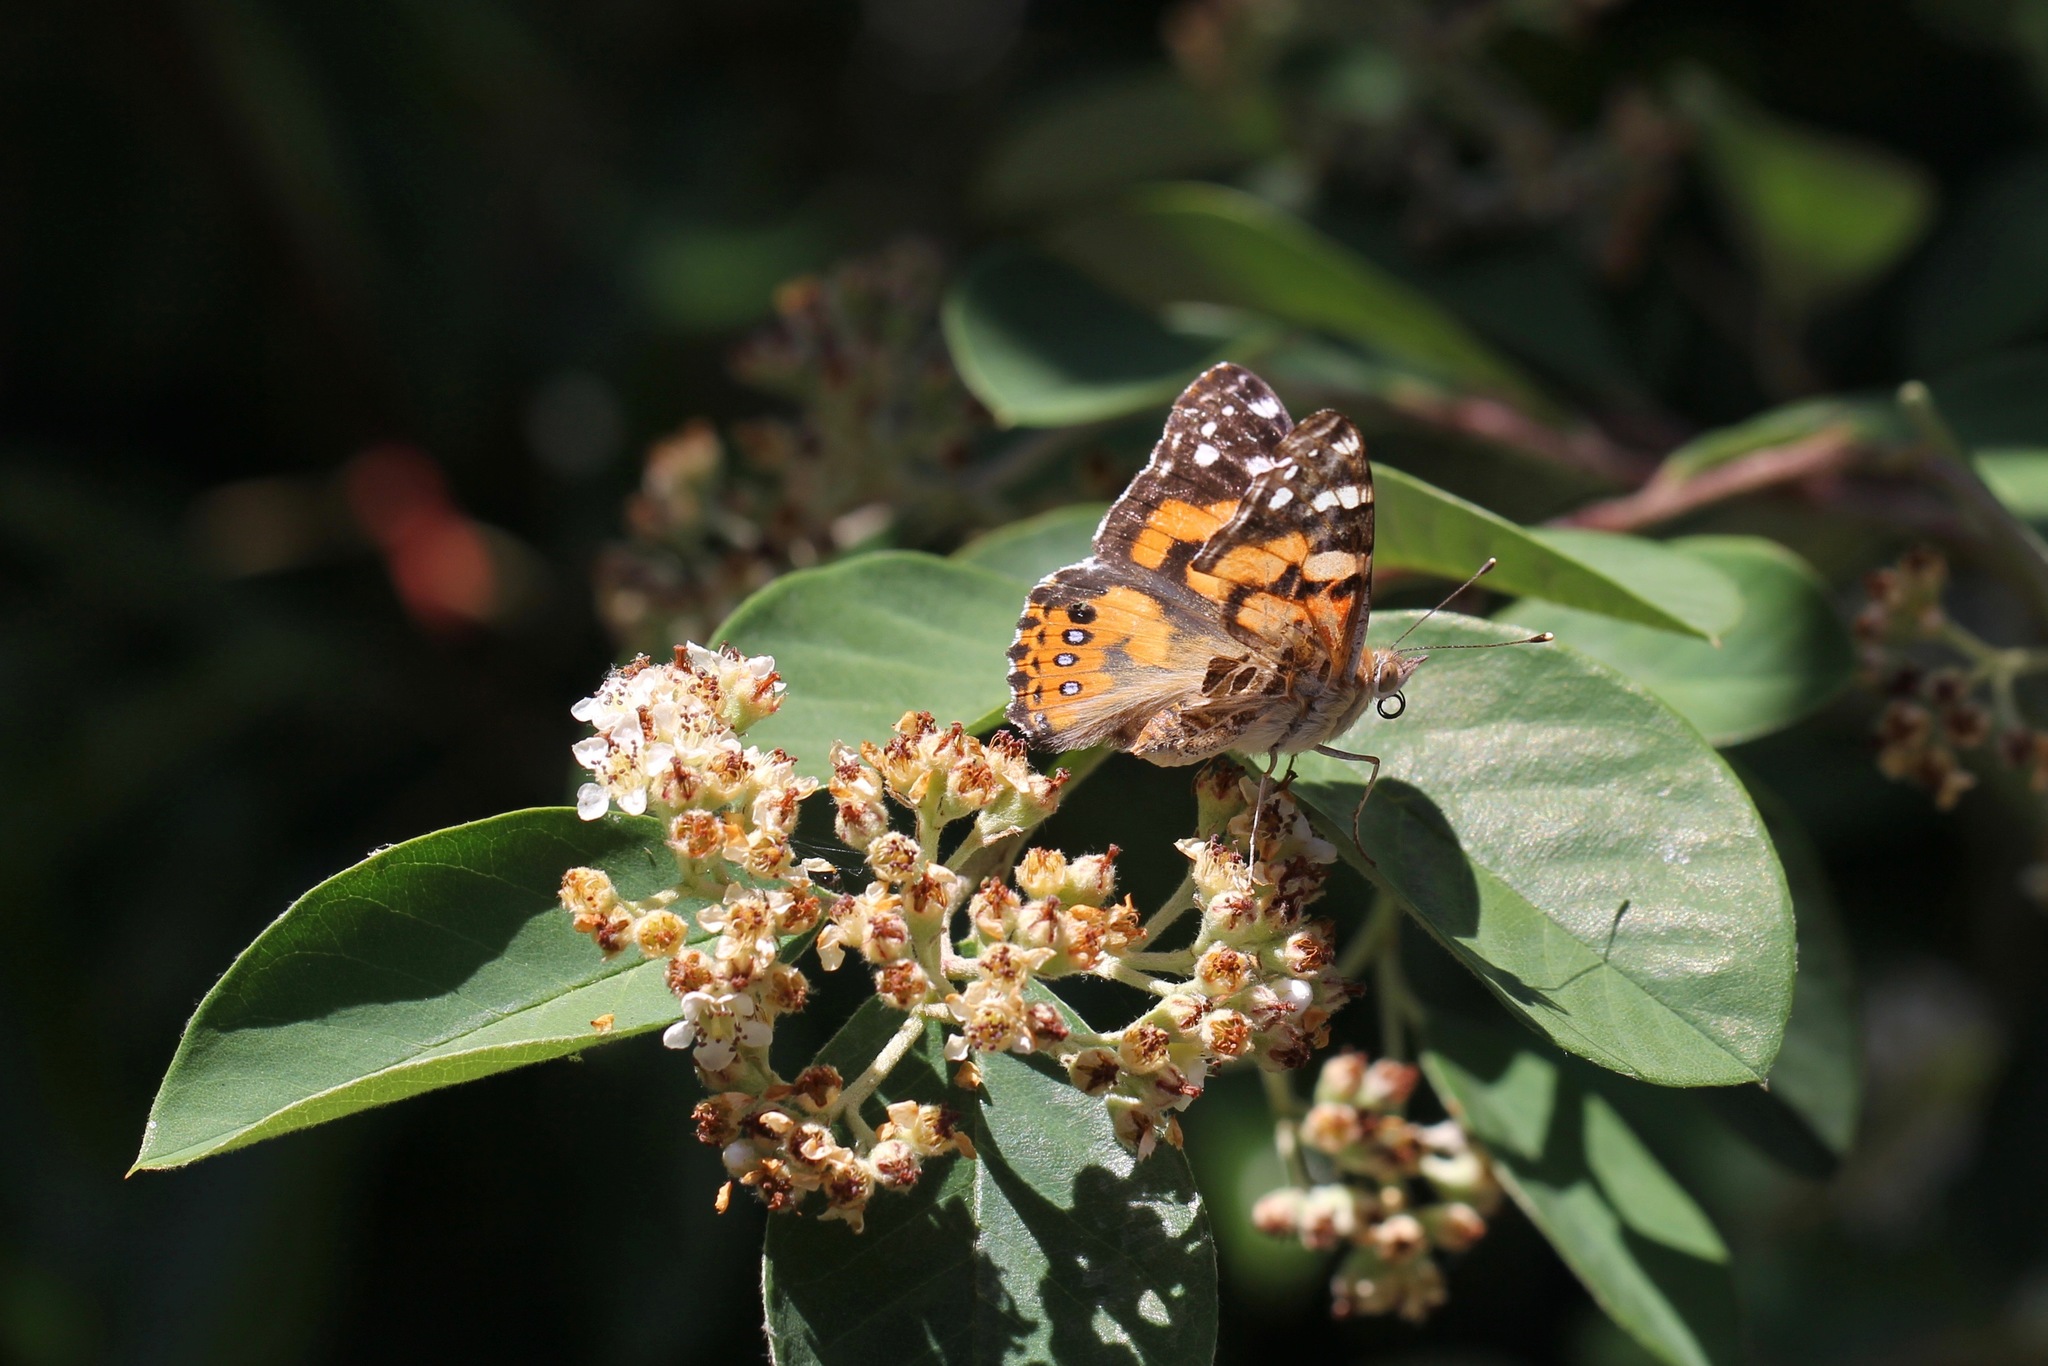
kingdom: Animalia
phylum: Arthropoda
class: Insecta
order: Lepidoptera
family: Nymphalidae
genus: Vanessa
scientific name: Vanessa kershawi
